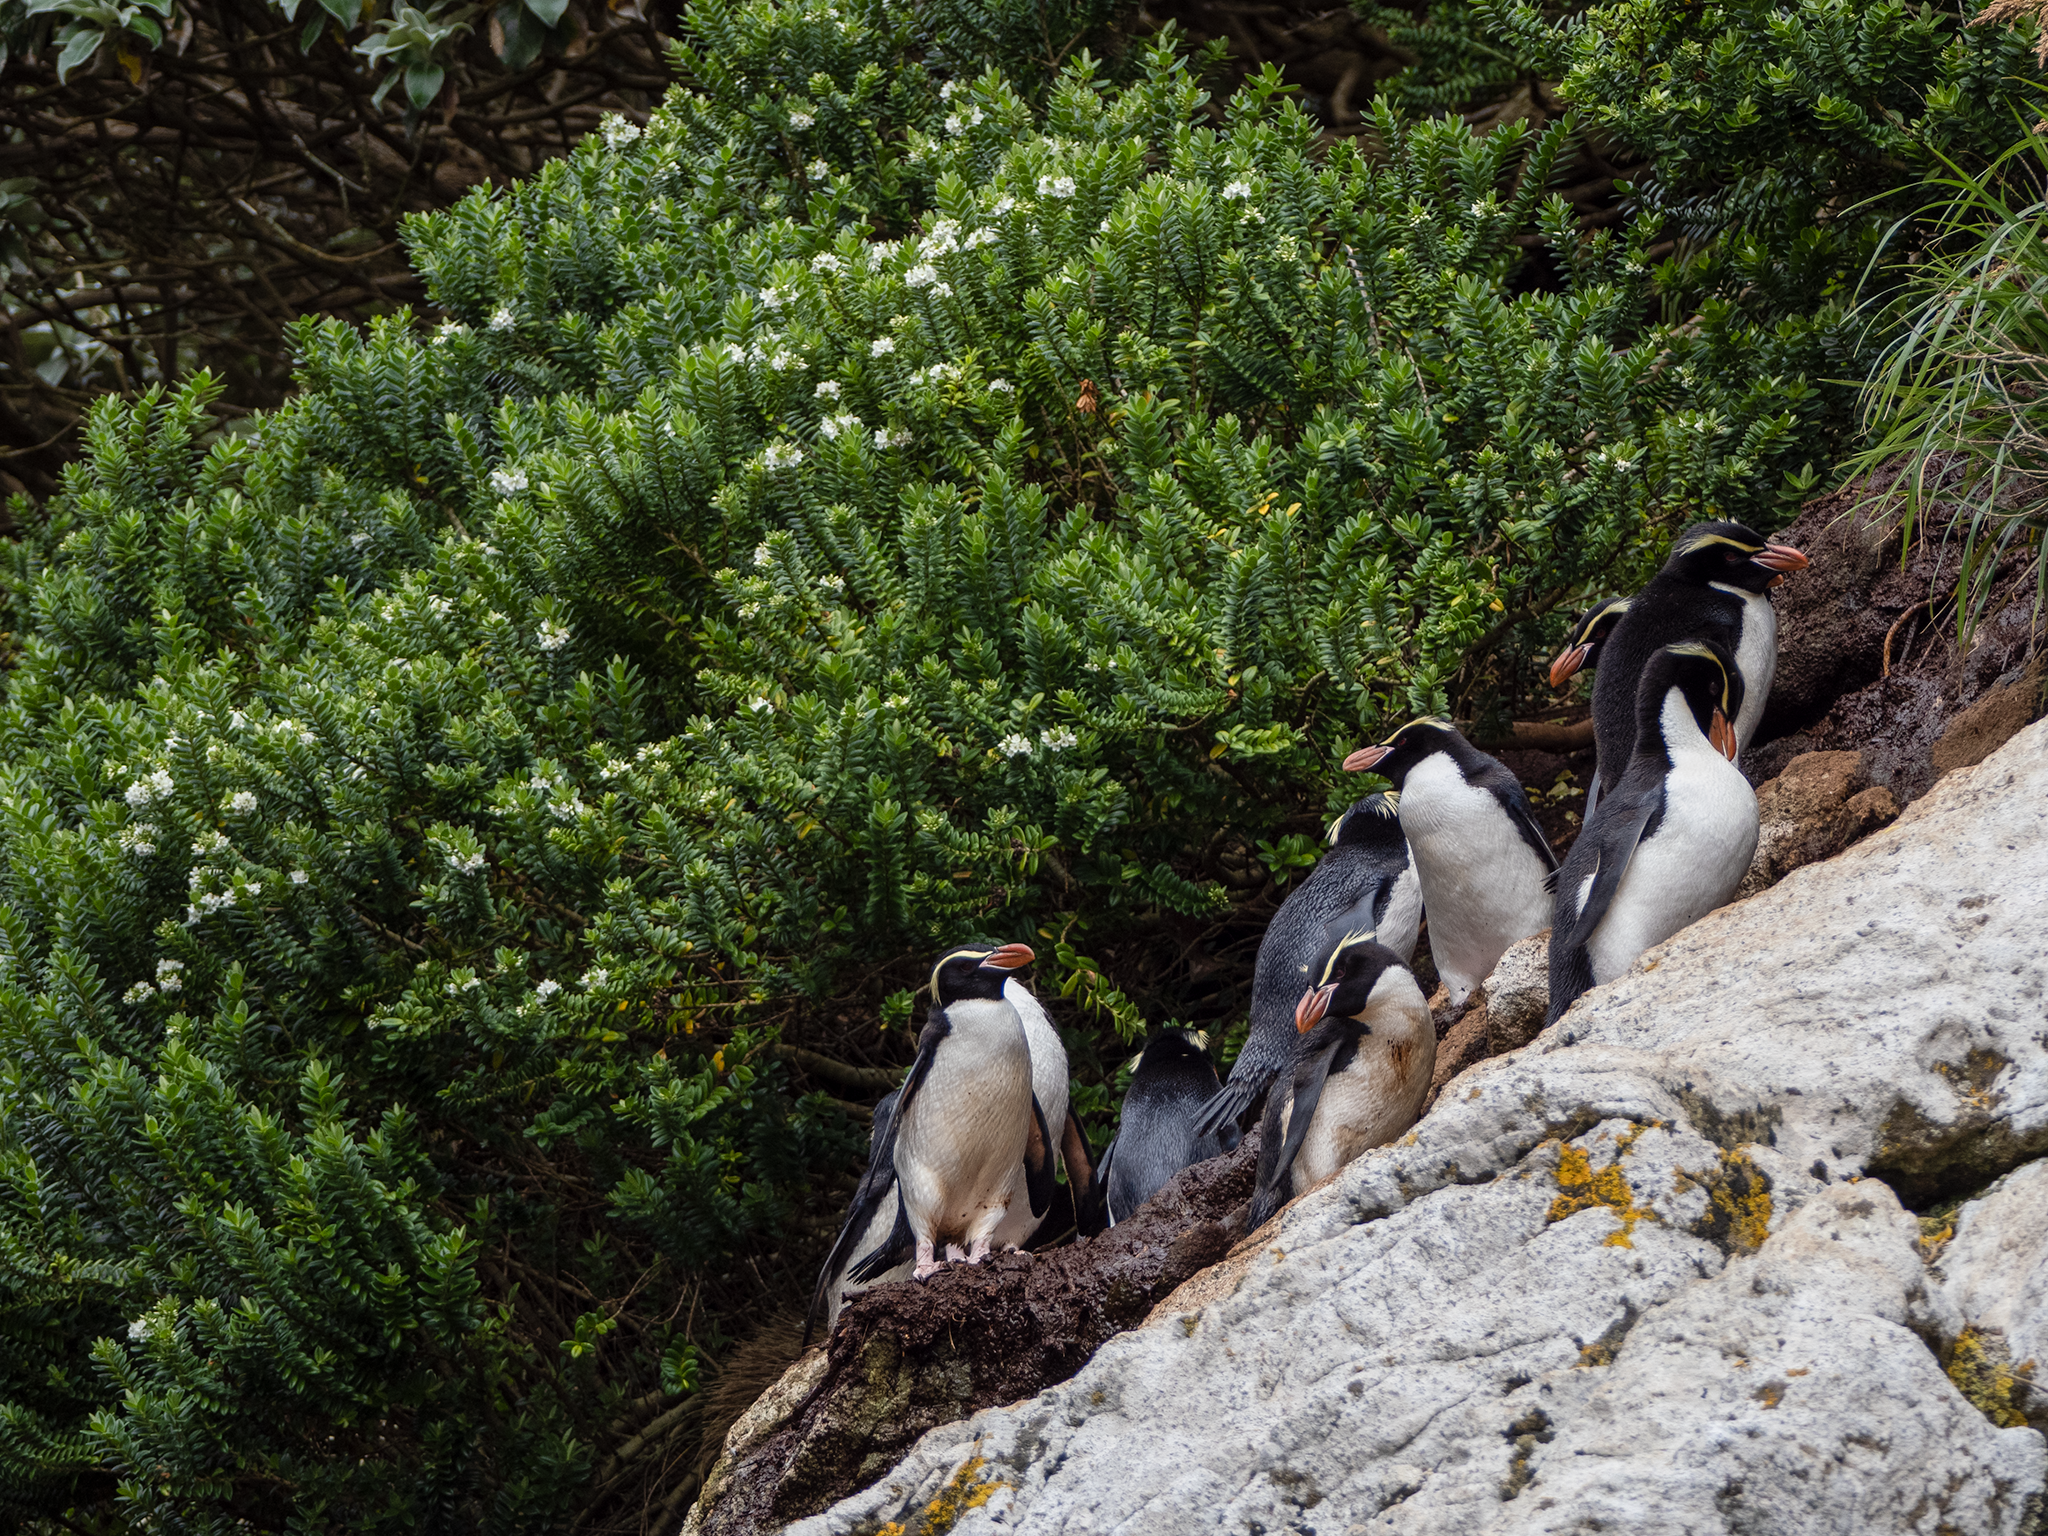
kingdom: Plantae
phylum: Tracheophyta
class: Magnoliopsida
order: Lamiales
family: Plantaginaceae
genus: Veronica
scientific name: Veronica elliptica
